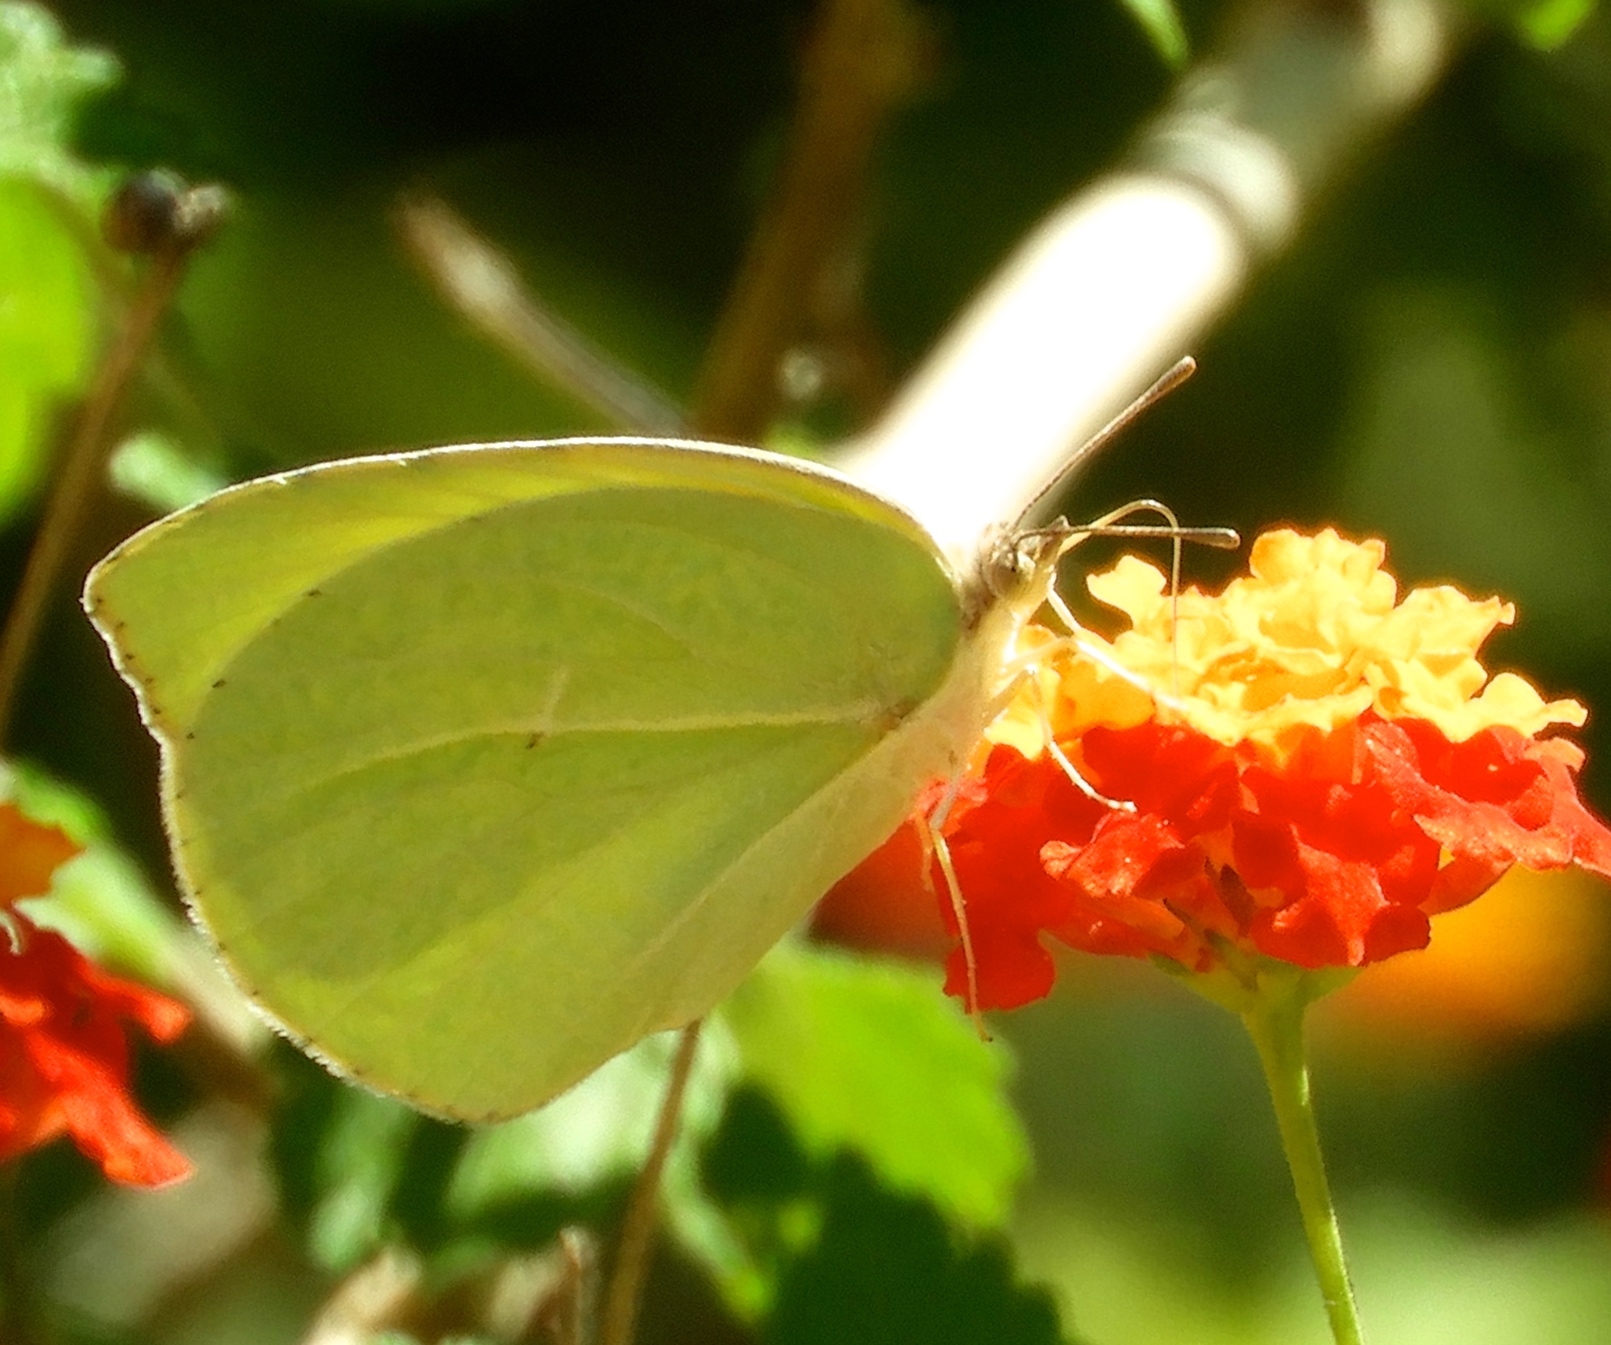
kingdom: Animalia
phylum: Arthropoda
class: Insecta
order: Lepidoptera
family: Pieridae
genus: Kricogonia
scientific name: Kricogonia lyside
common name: Guayacan sulphur,
